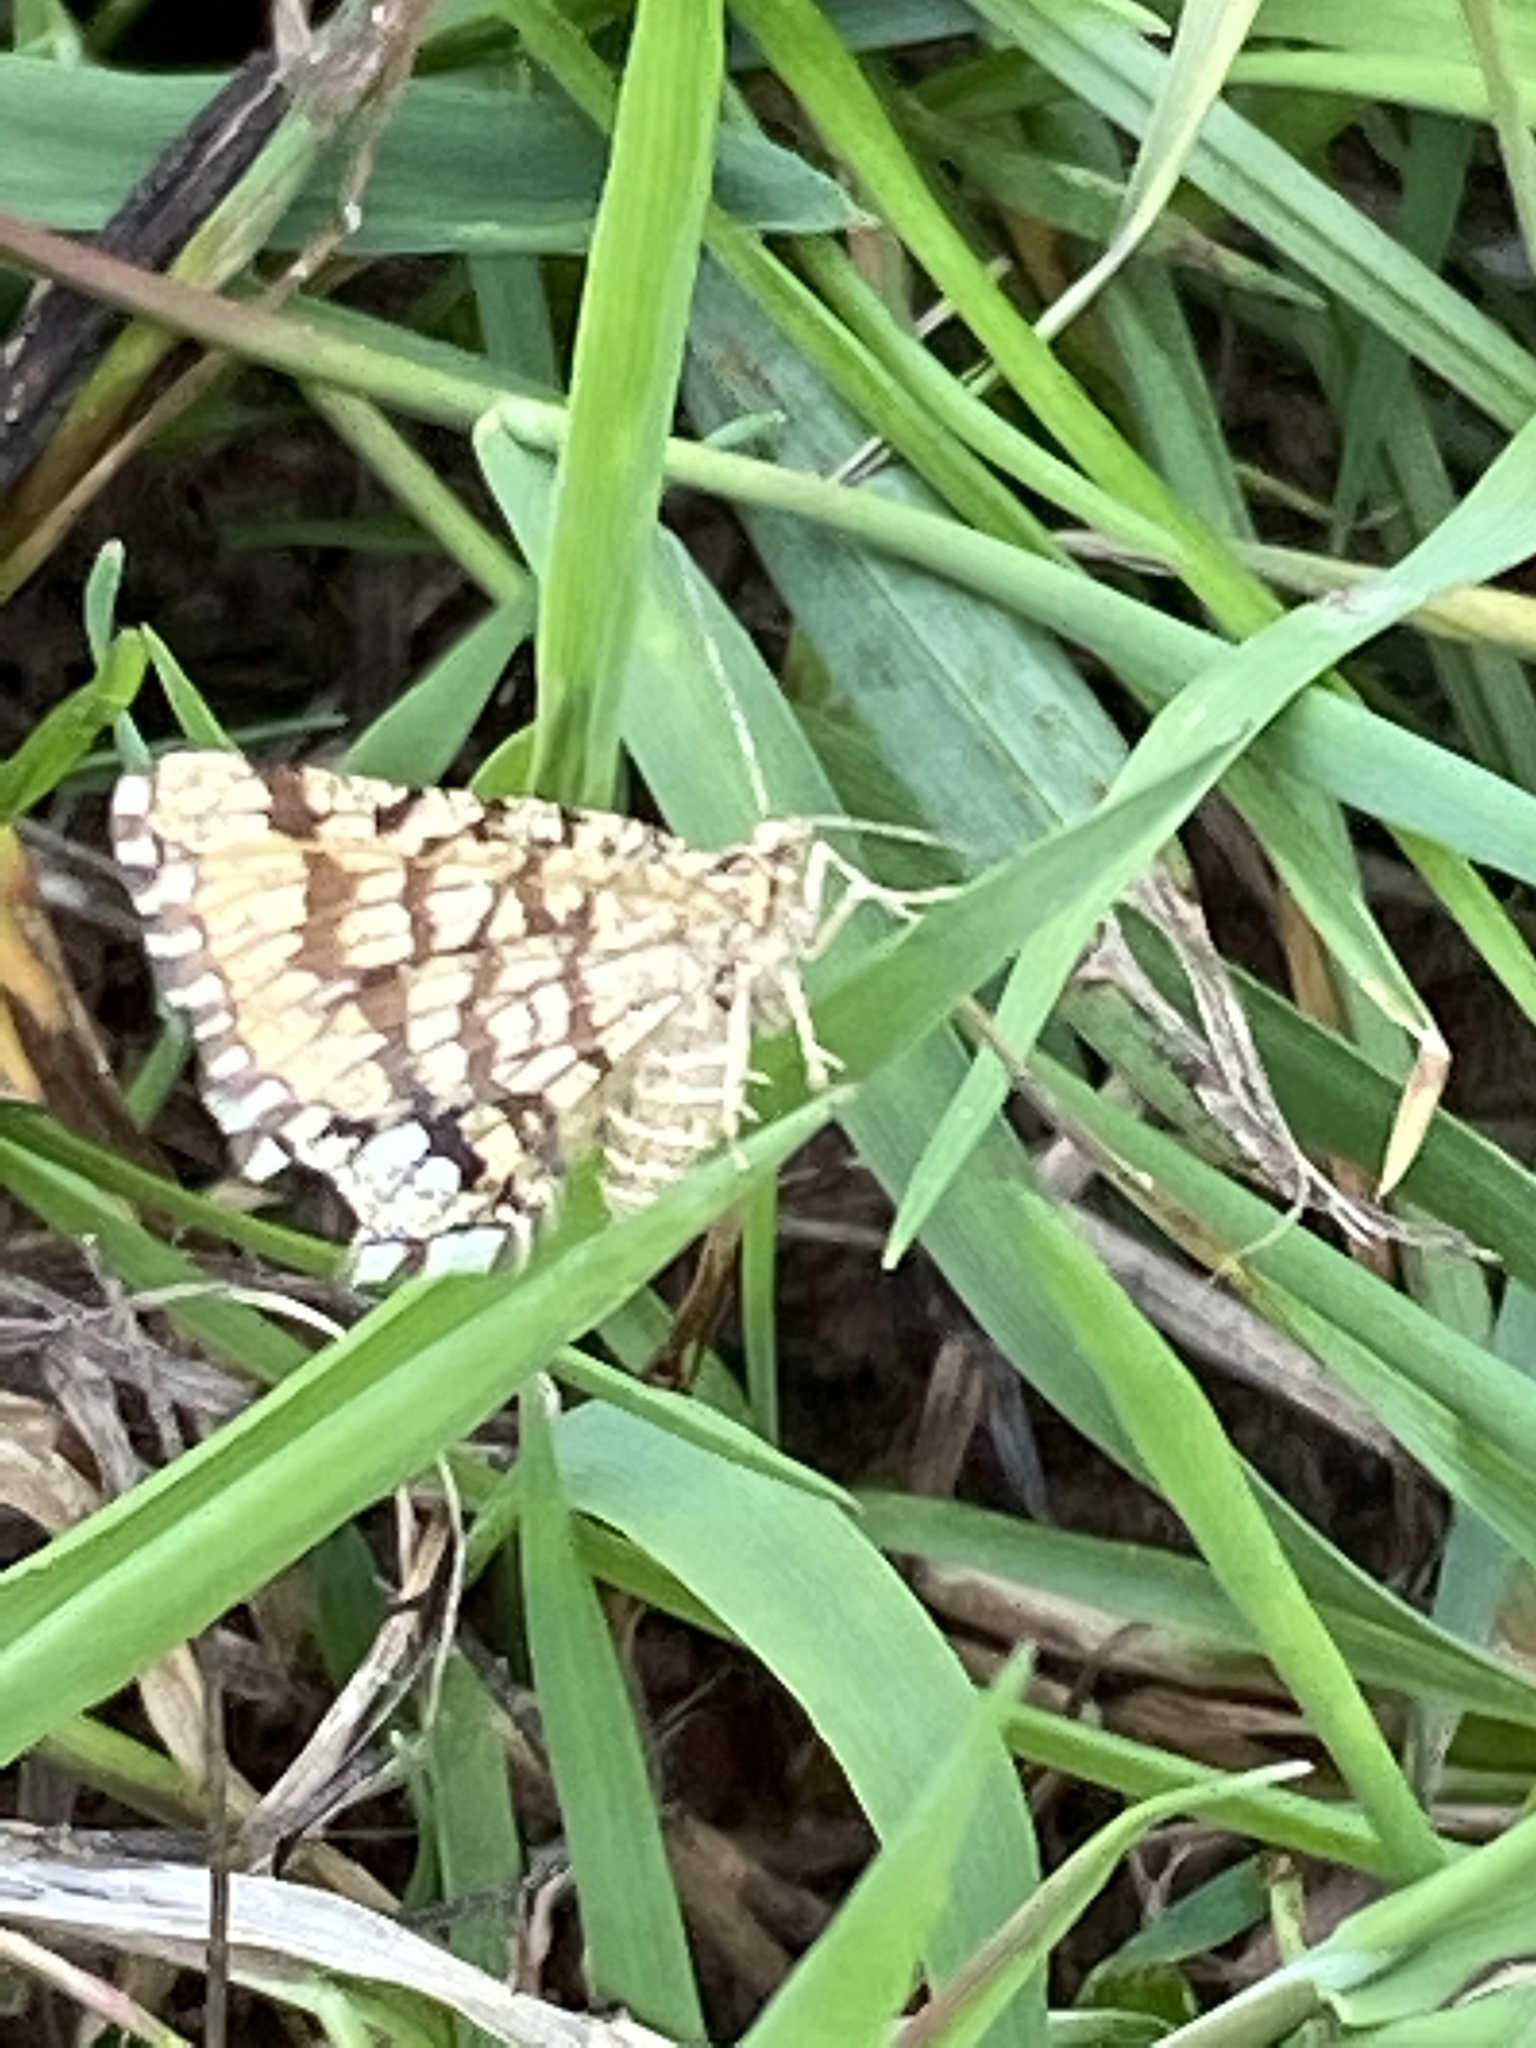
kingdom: Animalia
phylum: Arthropoda
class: Insecta
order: Lepidoptera
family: Geometridae
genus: Chiasmia
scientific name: Chiasmia clathrata
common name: Latticed heath
